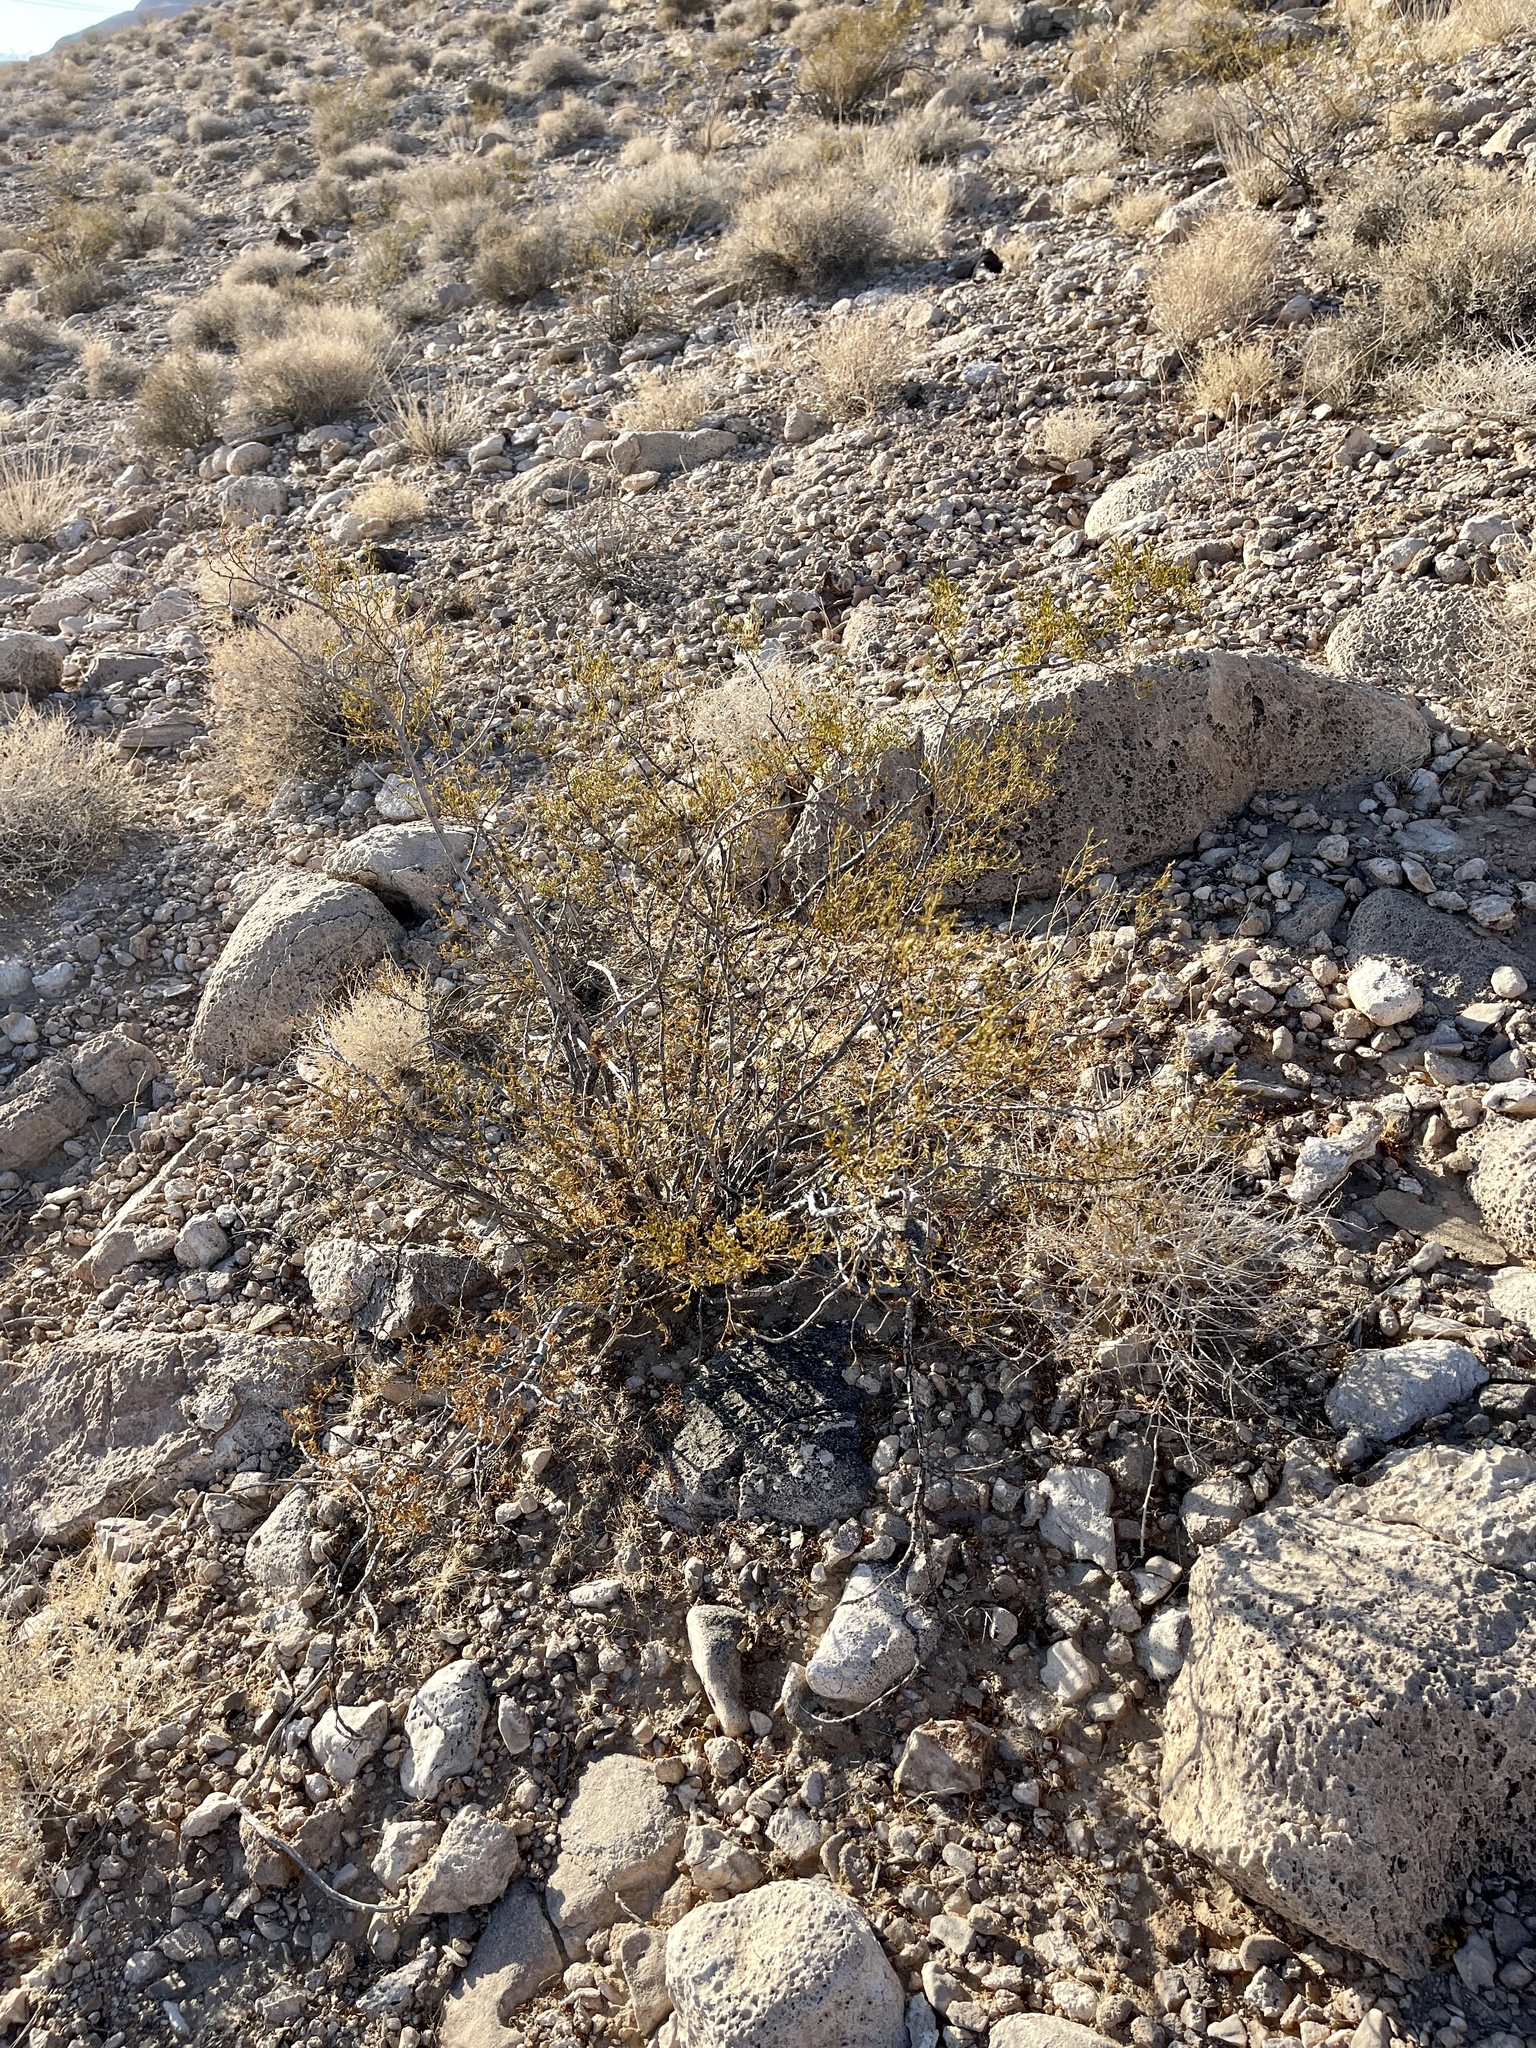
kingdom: Plantae
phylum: Tracheophyta
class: Magnoliopsida
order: Zygophyllales
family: Zygophyllaceae
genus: Larrea
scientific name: Larrea tridentata
